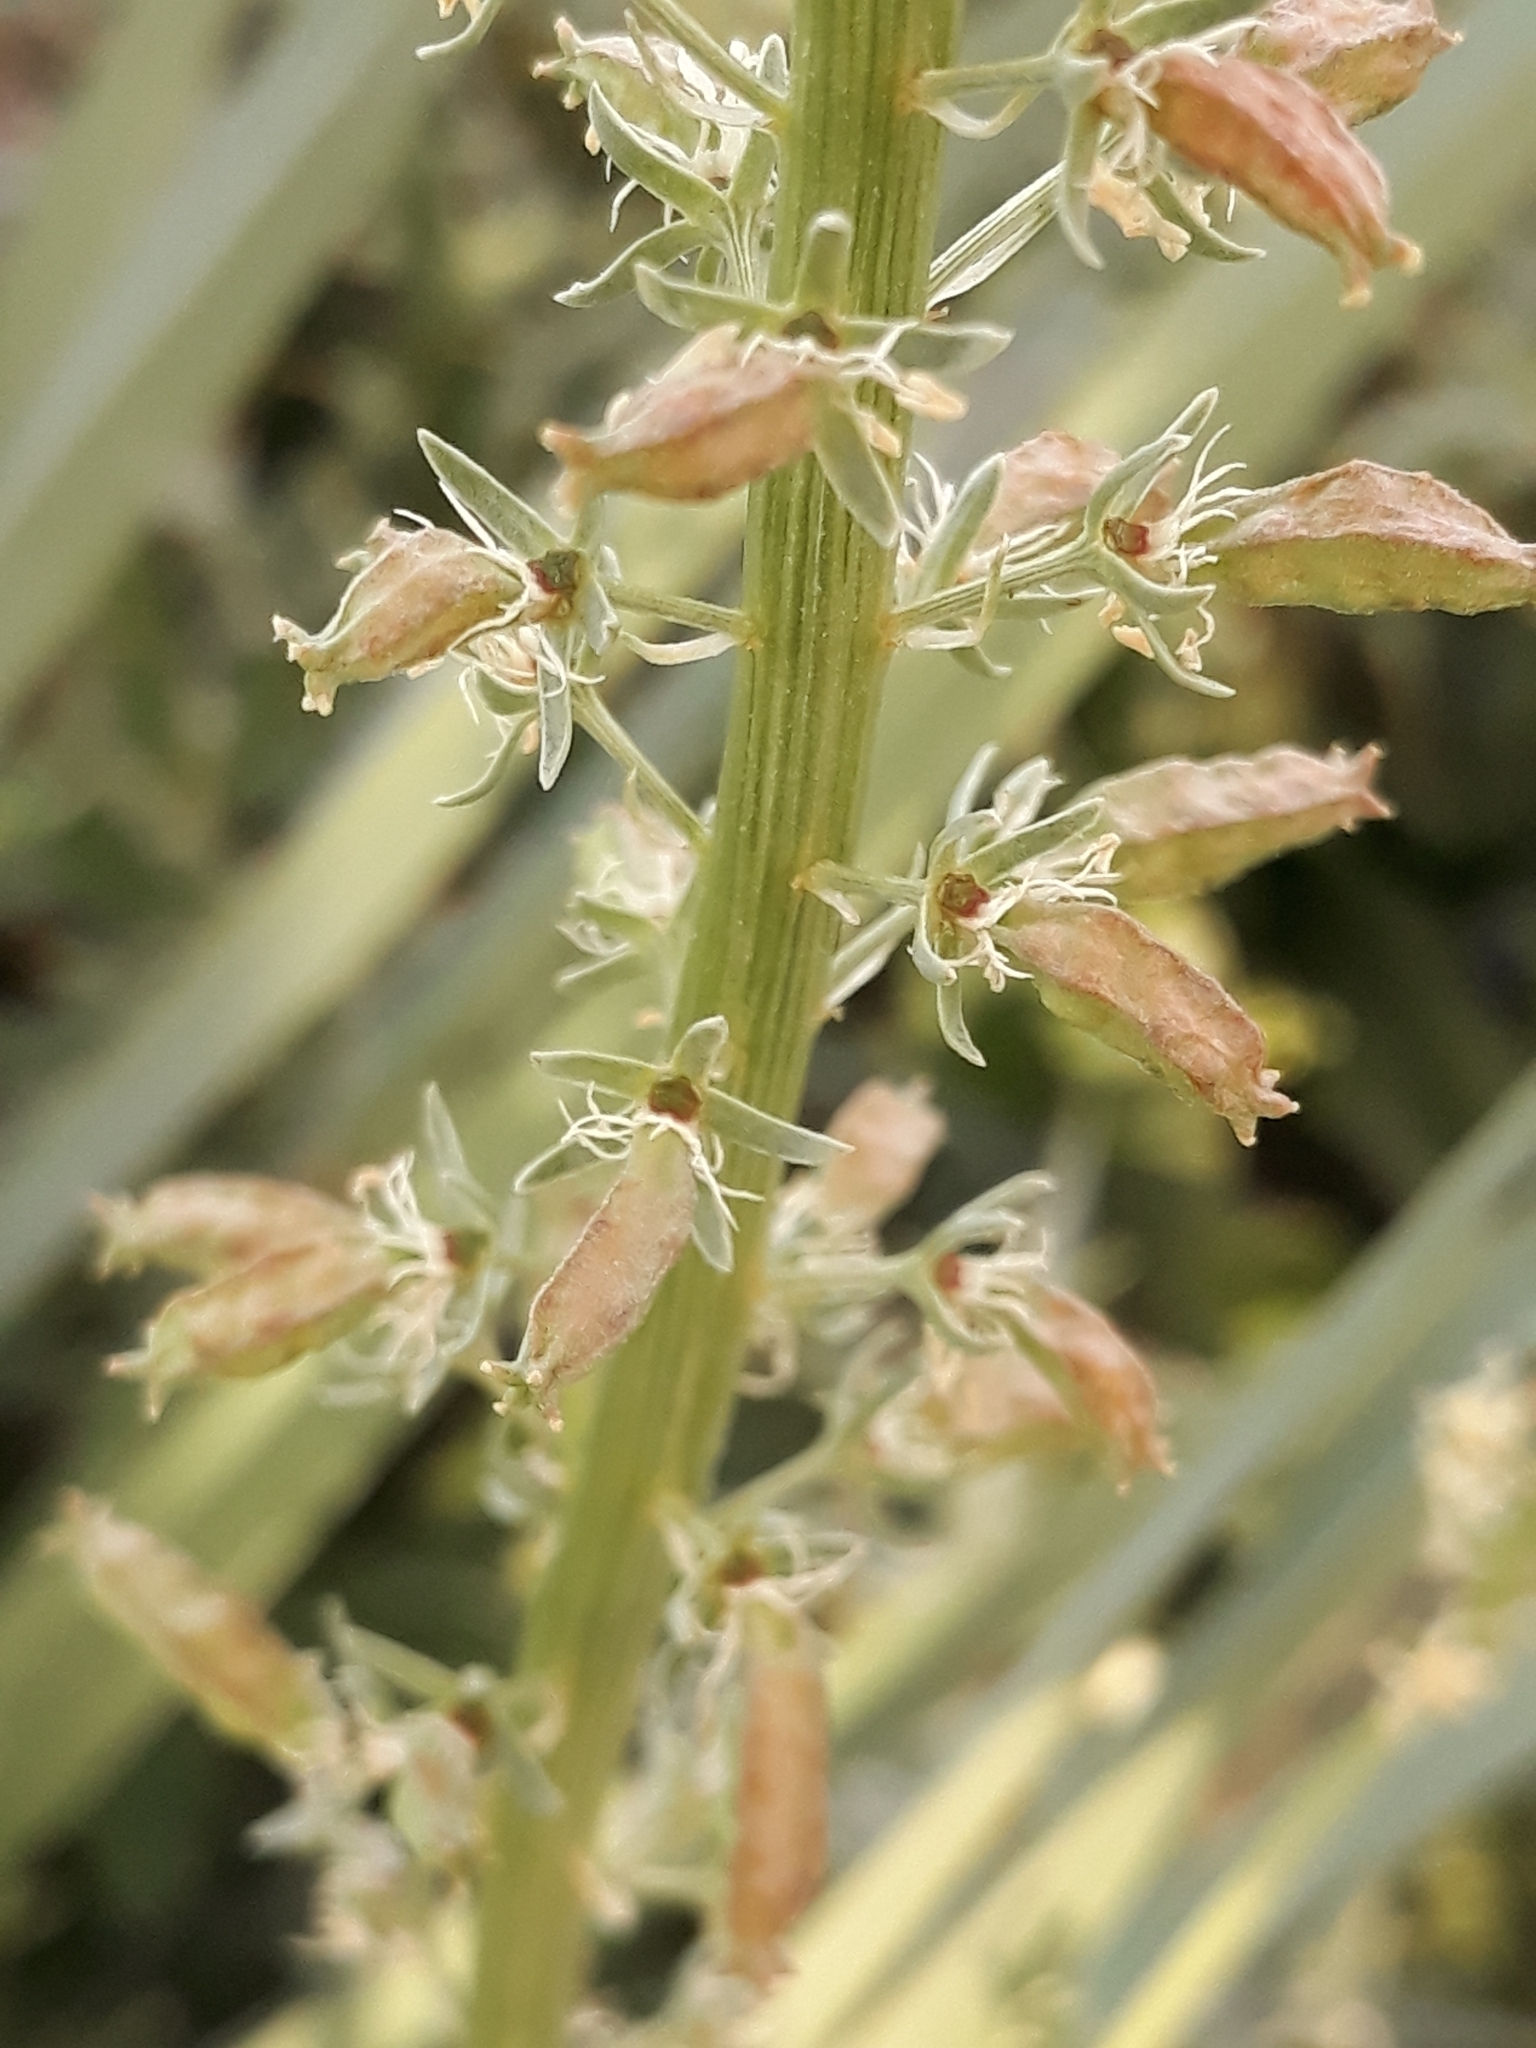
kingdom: Plantae
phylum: Tracheophyta
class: Magnoliopsida
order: Brassicales
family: Resedaceae
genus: Reseda
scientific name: Reseda alba
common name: White mignonette
